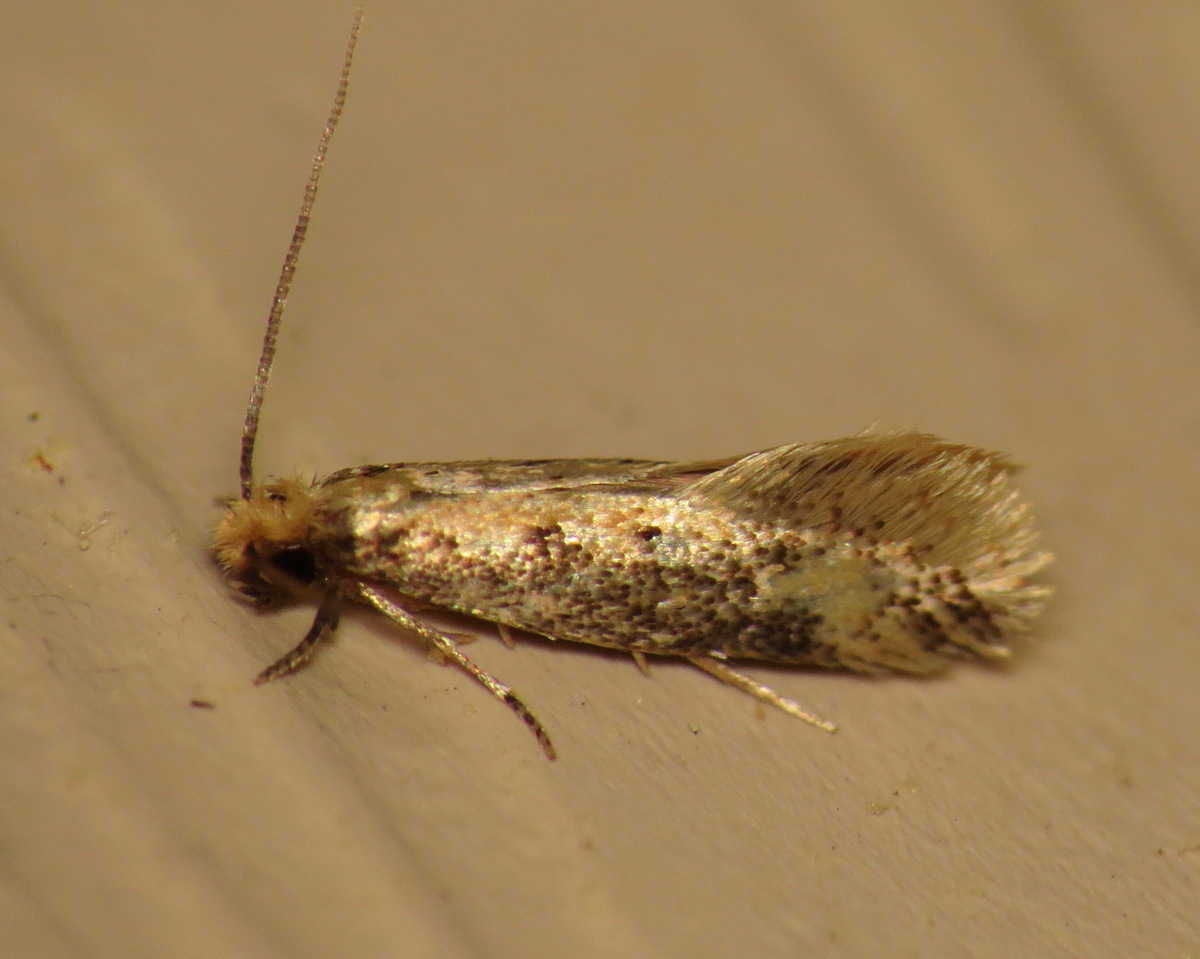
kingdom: Animalia
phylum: Arthropoda
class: Insecta
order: Lepidoptera
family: Tineidae
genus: Tinea
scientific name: Tinea mandarinella
